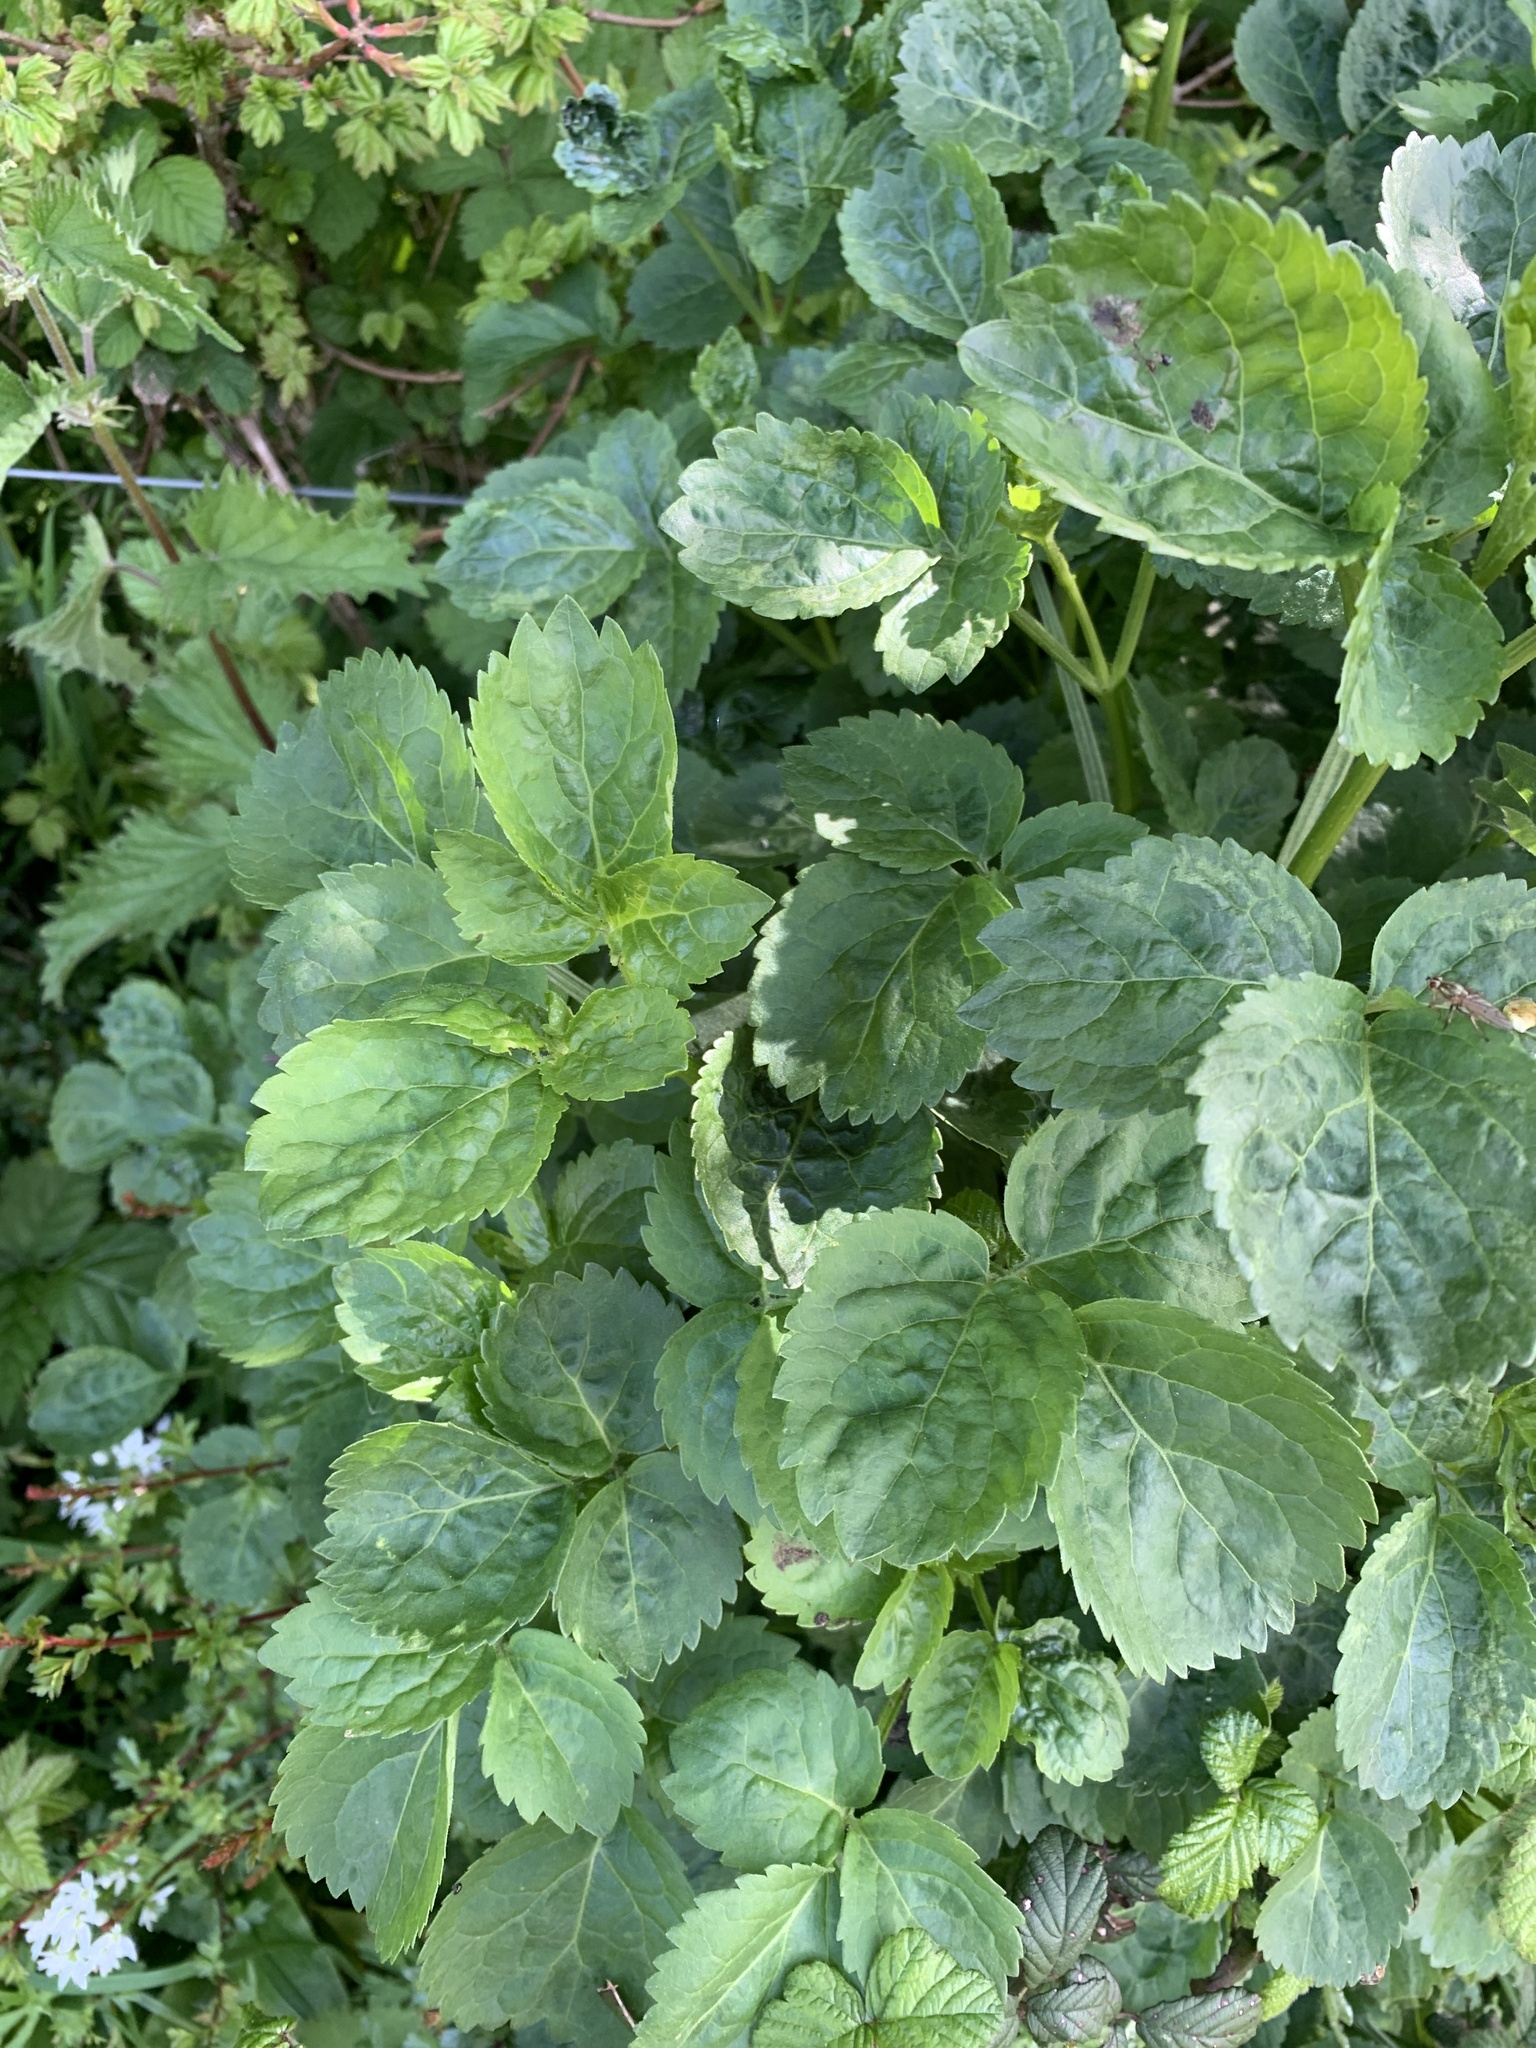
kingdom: Plantae
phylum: Tracheophyta
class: Magnoliopsida
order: Dipsacales
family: Viburnaceae
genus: Sambucus
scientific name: Sambucus nigra
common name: Elder
